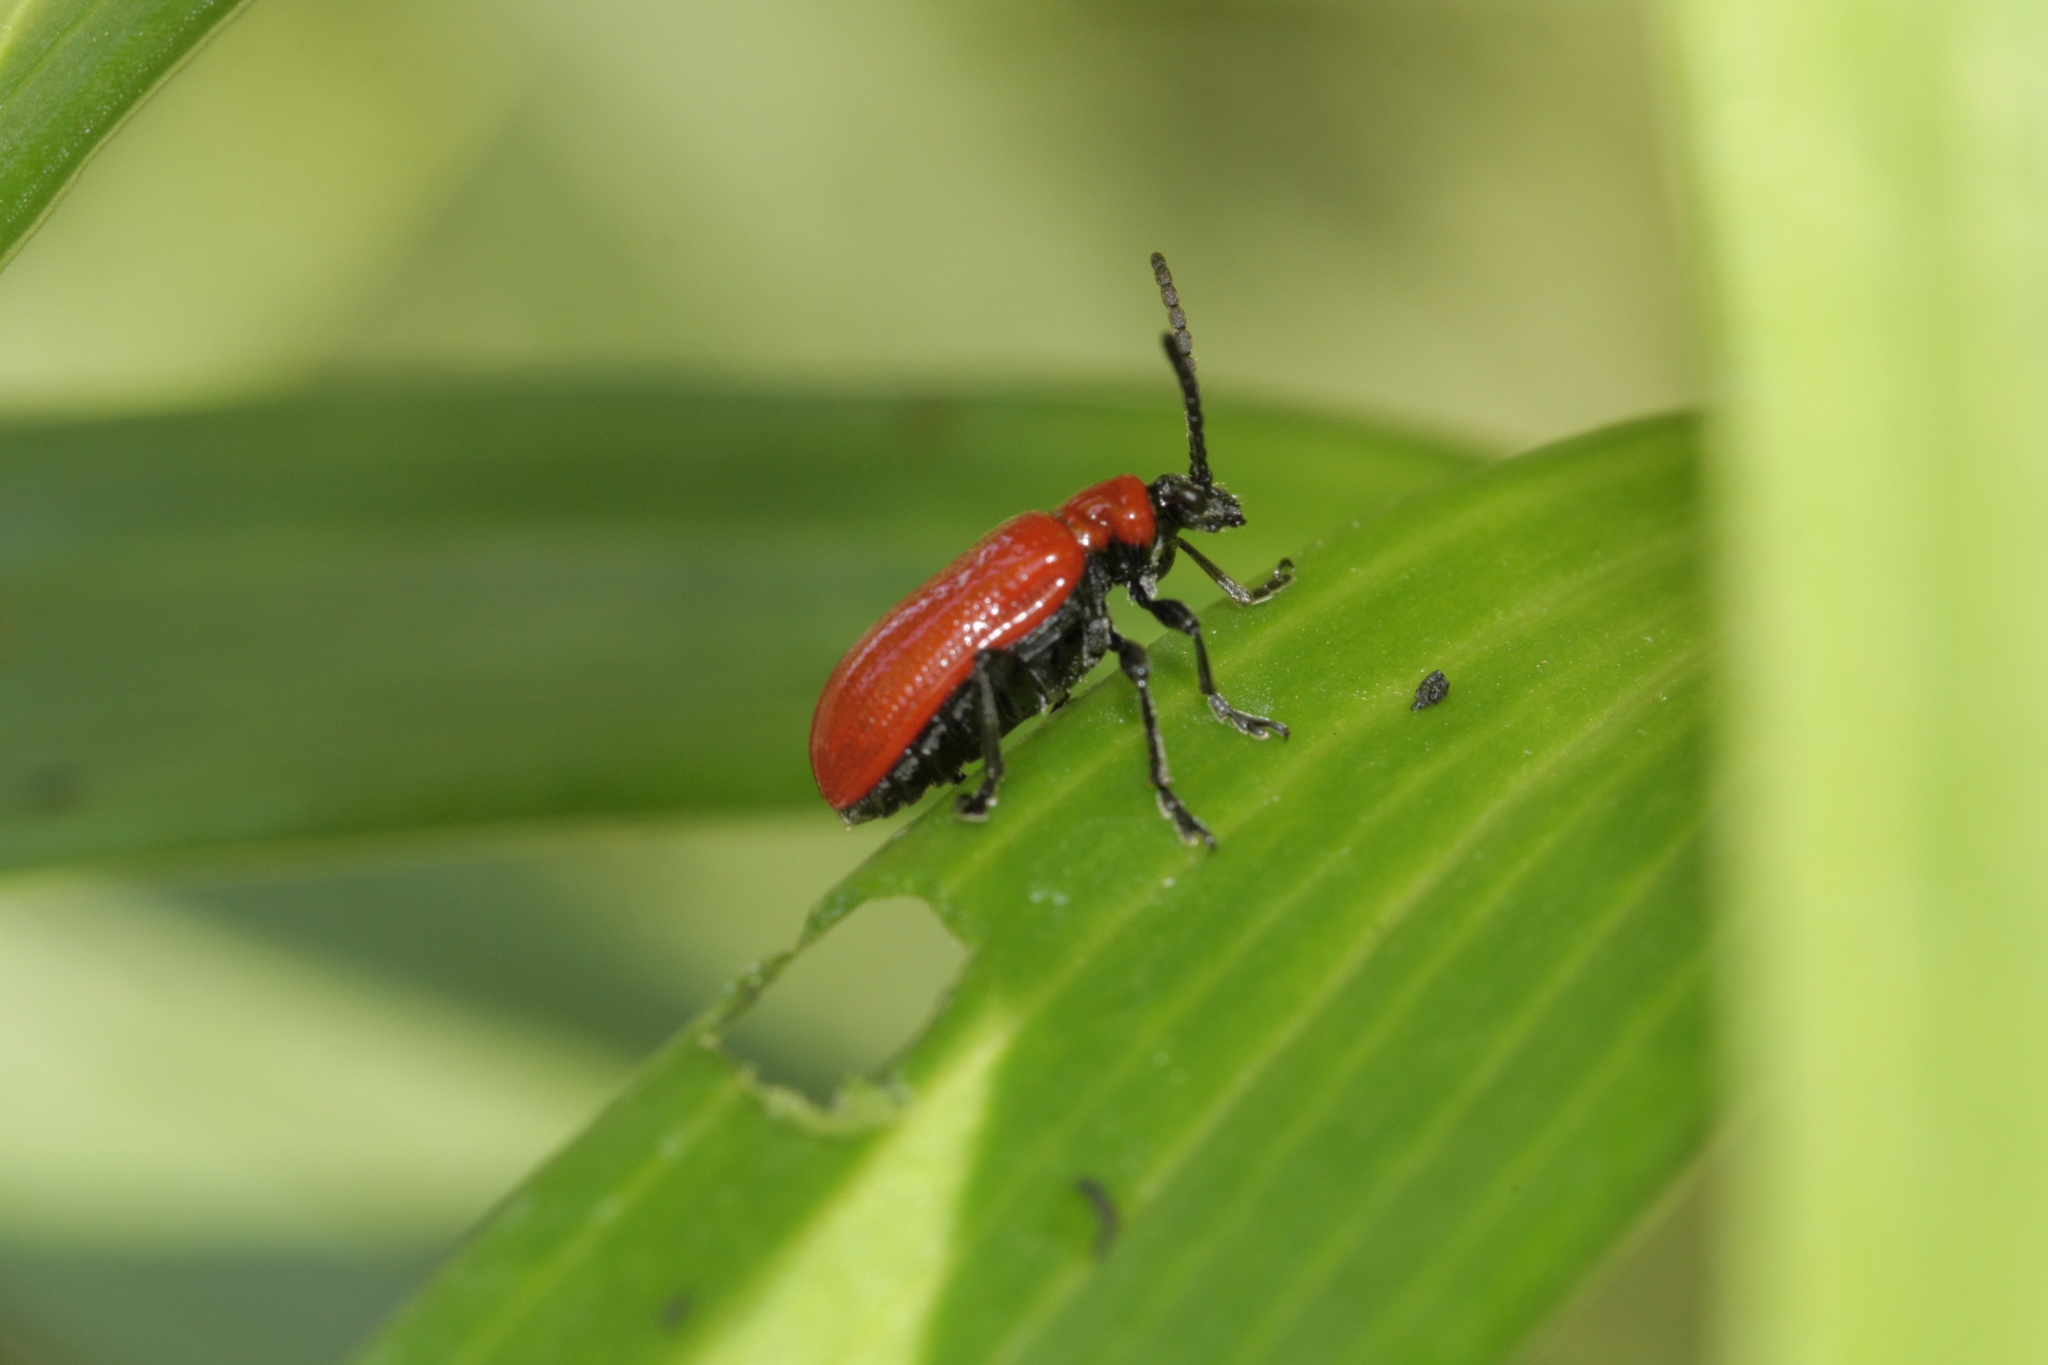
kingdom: Animalia
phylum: Arthropoda
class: Insecta
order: Coleoptera
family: Chrysomelidae
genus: Lilioceris
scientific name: Lilioceris lilii
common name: Lily beetle
